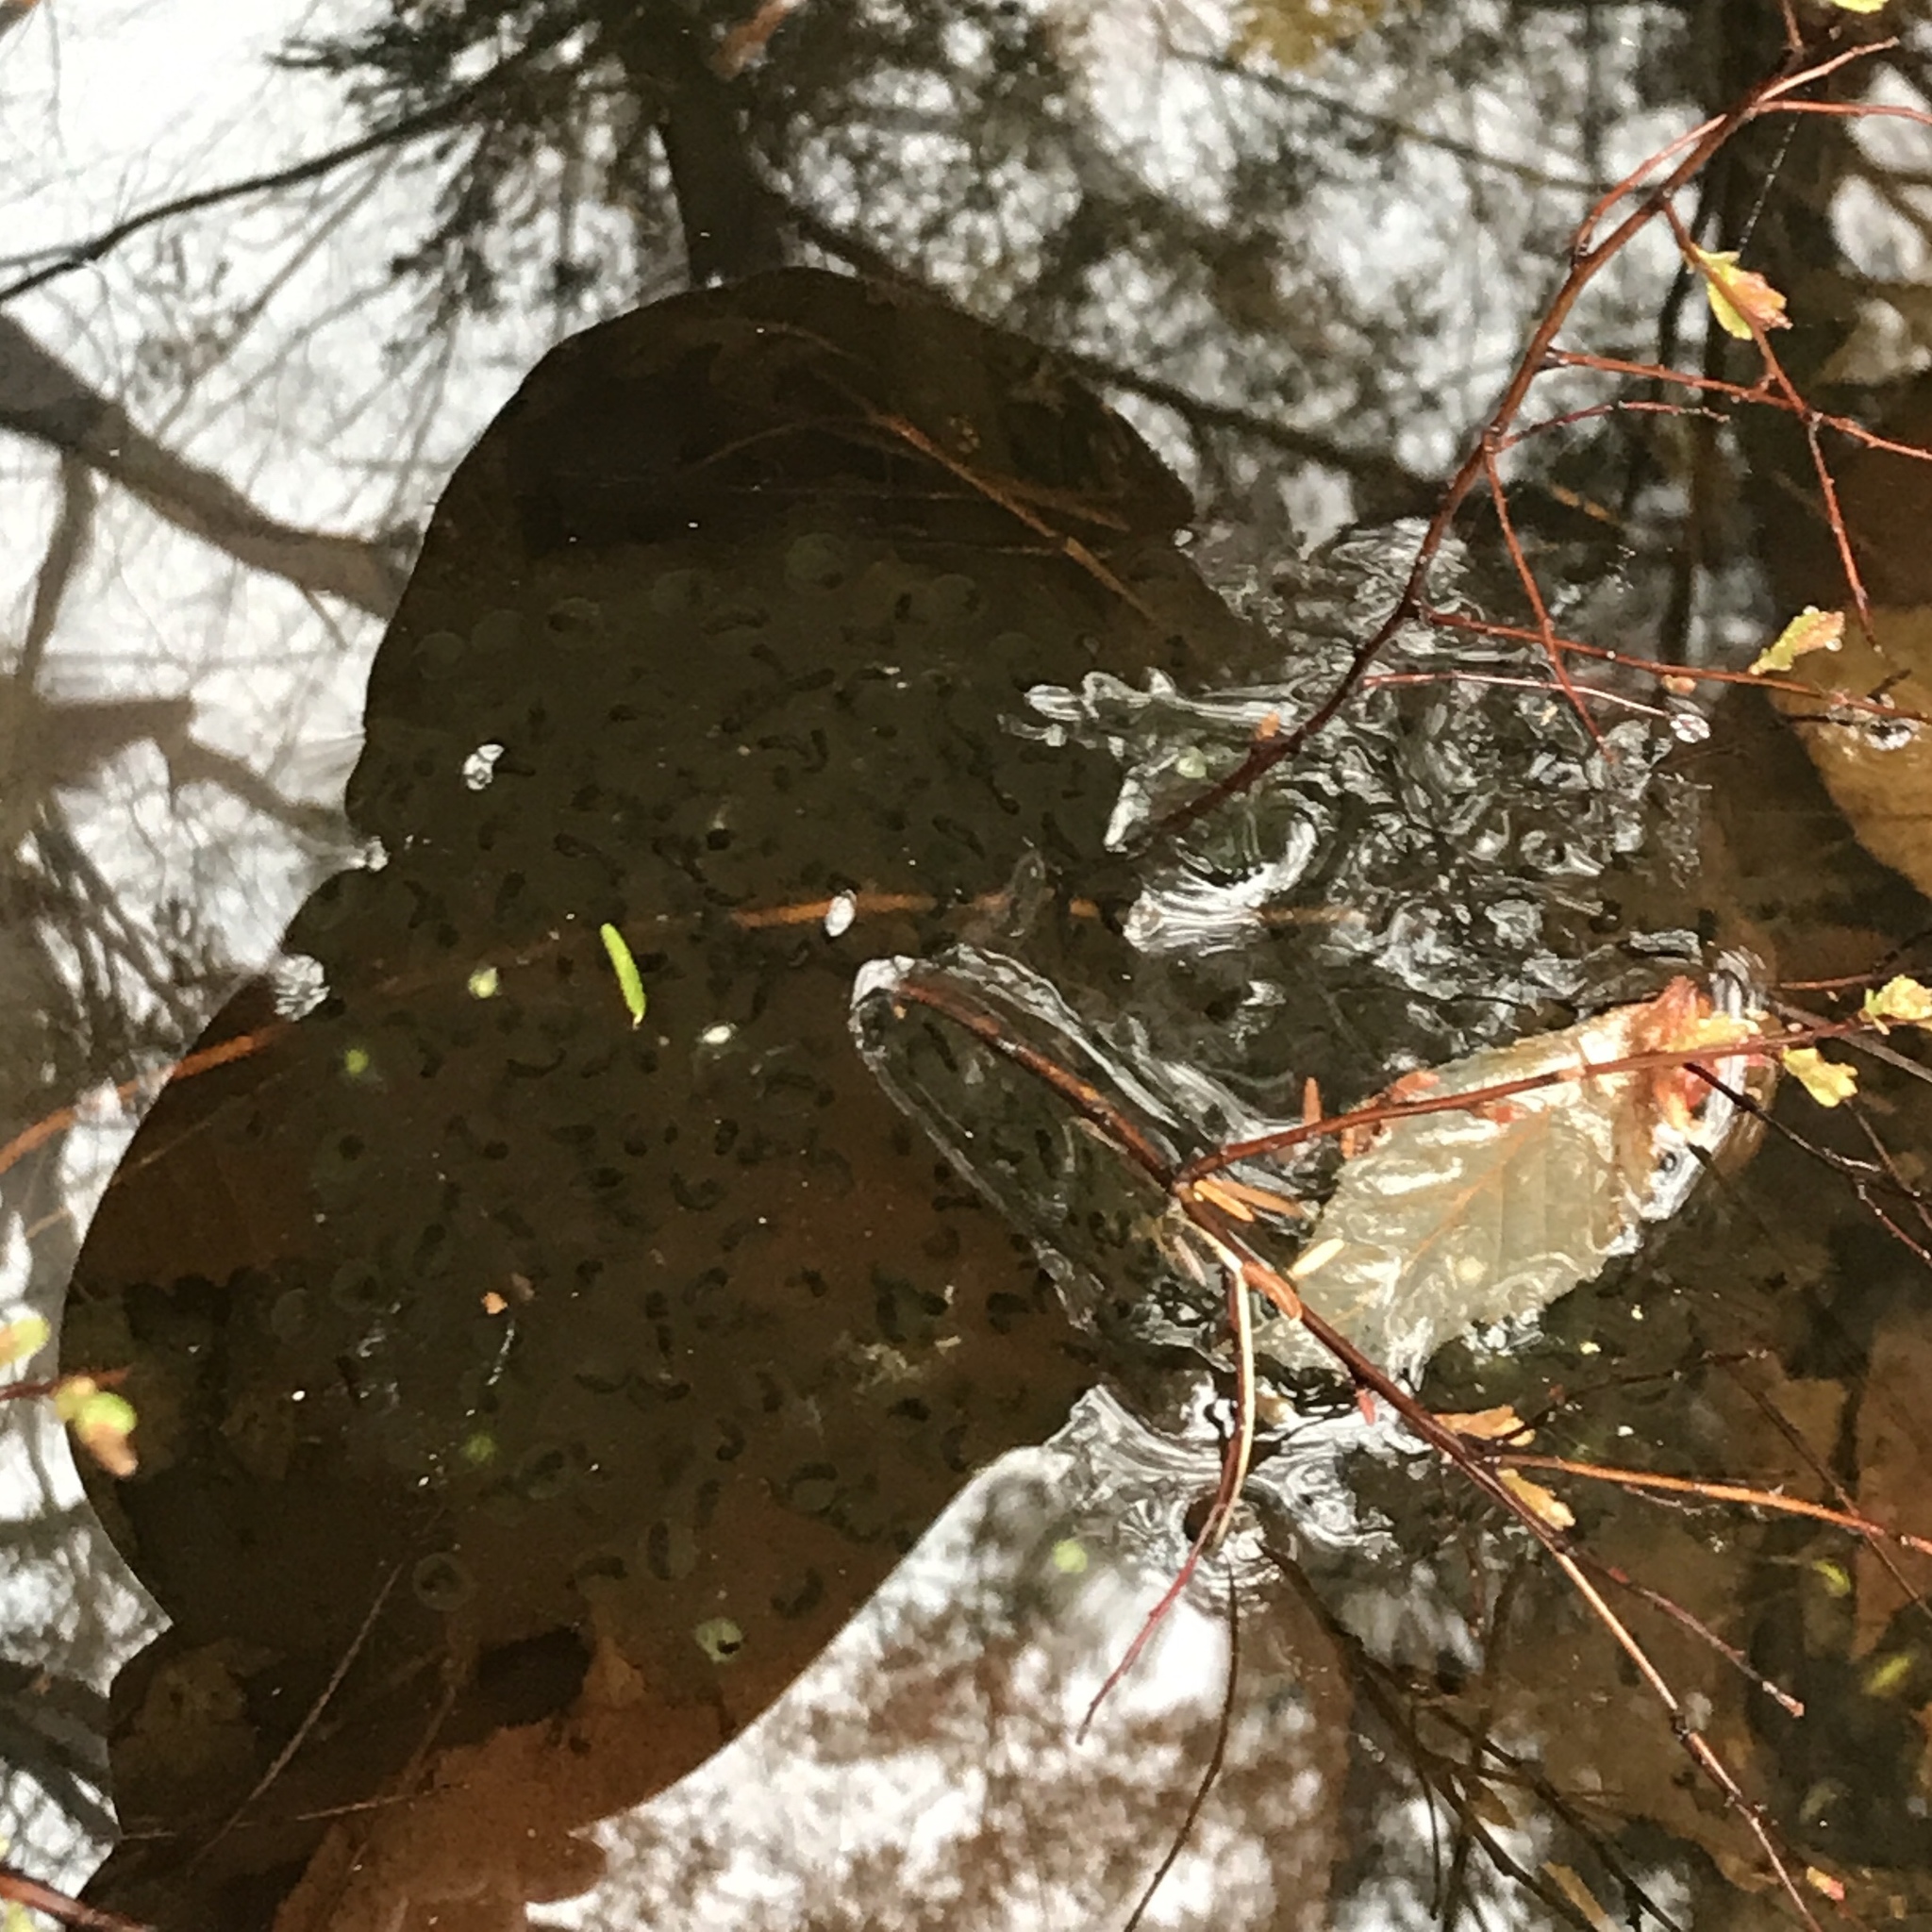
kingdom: Animalia
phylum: Chordata
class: Amphibia
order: Anura
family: Ranidae
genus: Lithobates
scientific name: Lithobates sylvaticus
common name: Wood frog
